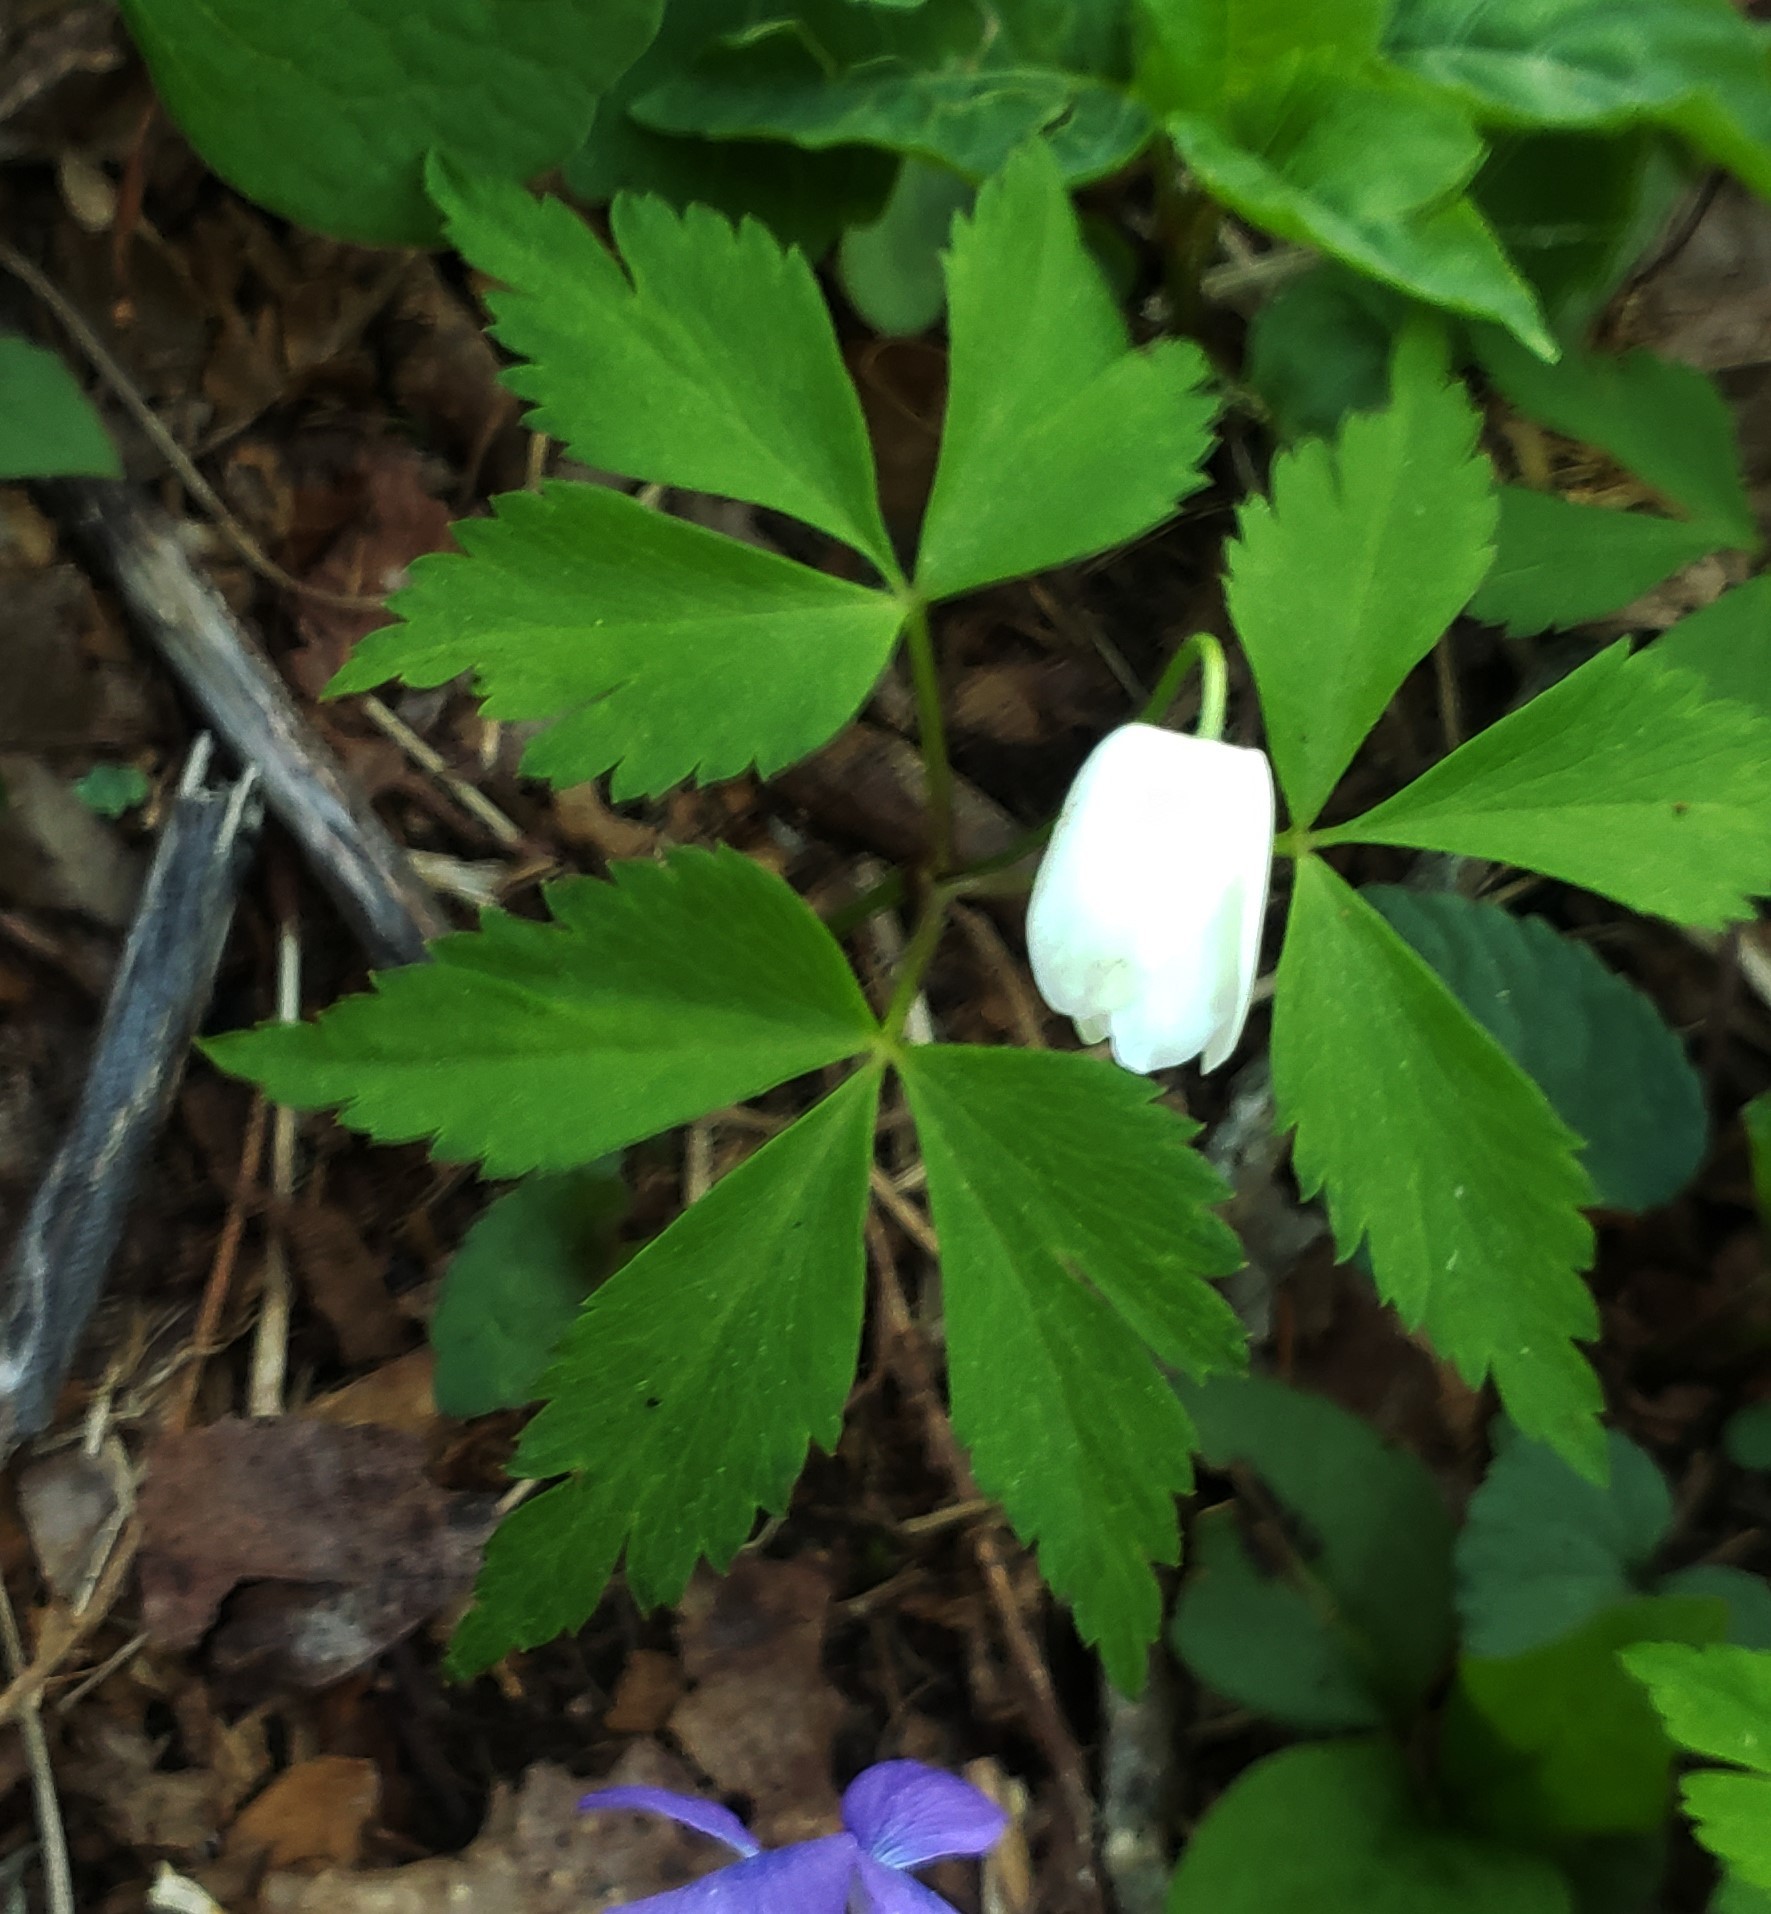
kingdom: Plantae
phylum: Tracheophyta
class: Magnoliopsida
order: Ranunculales
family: Ranunculaceae
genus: Anemone
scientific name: Anemone quinquefolia
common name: Wood anemone
